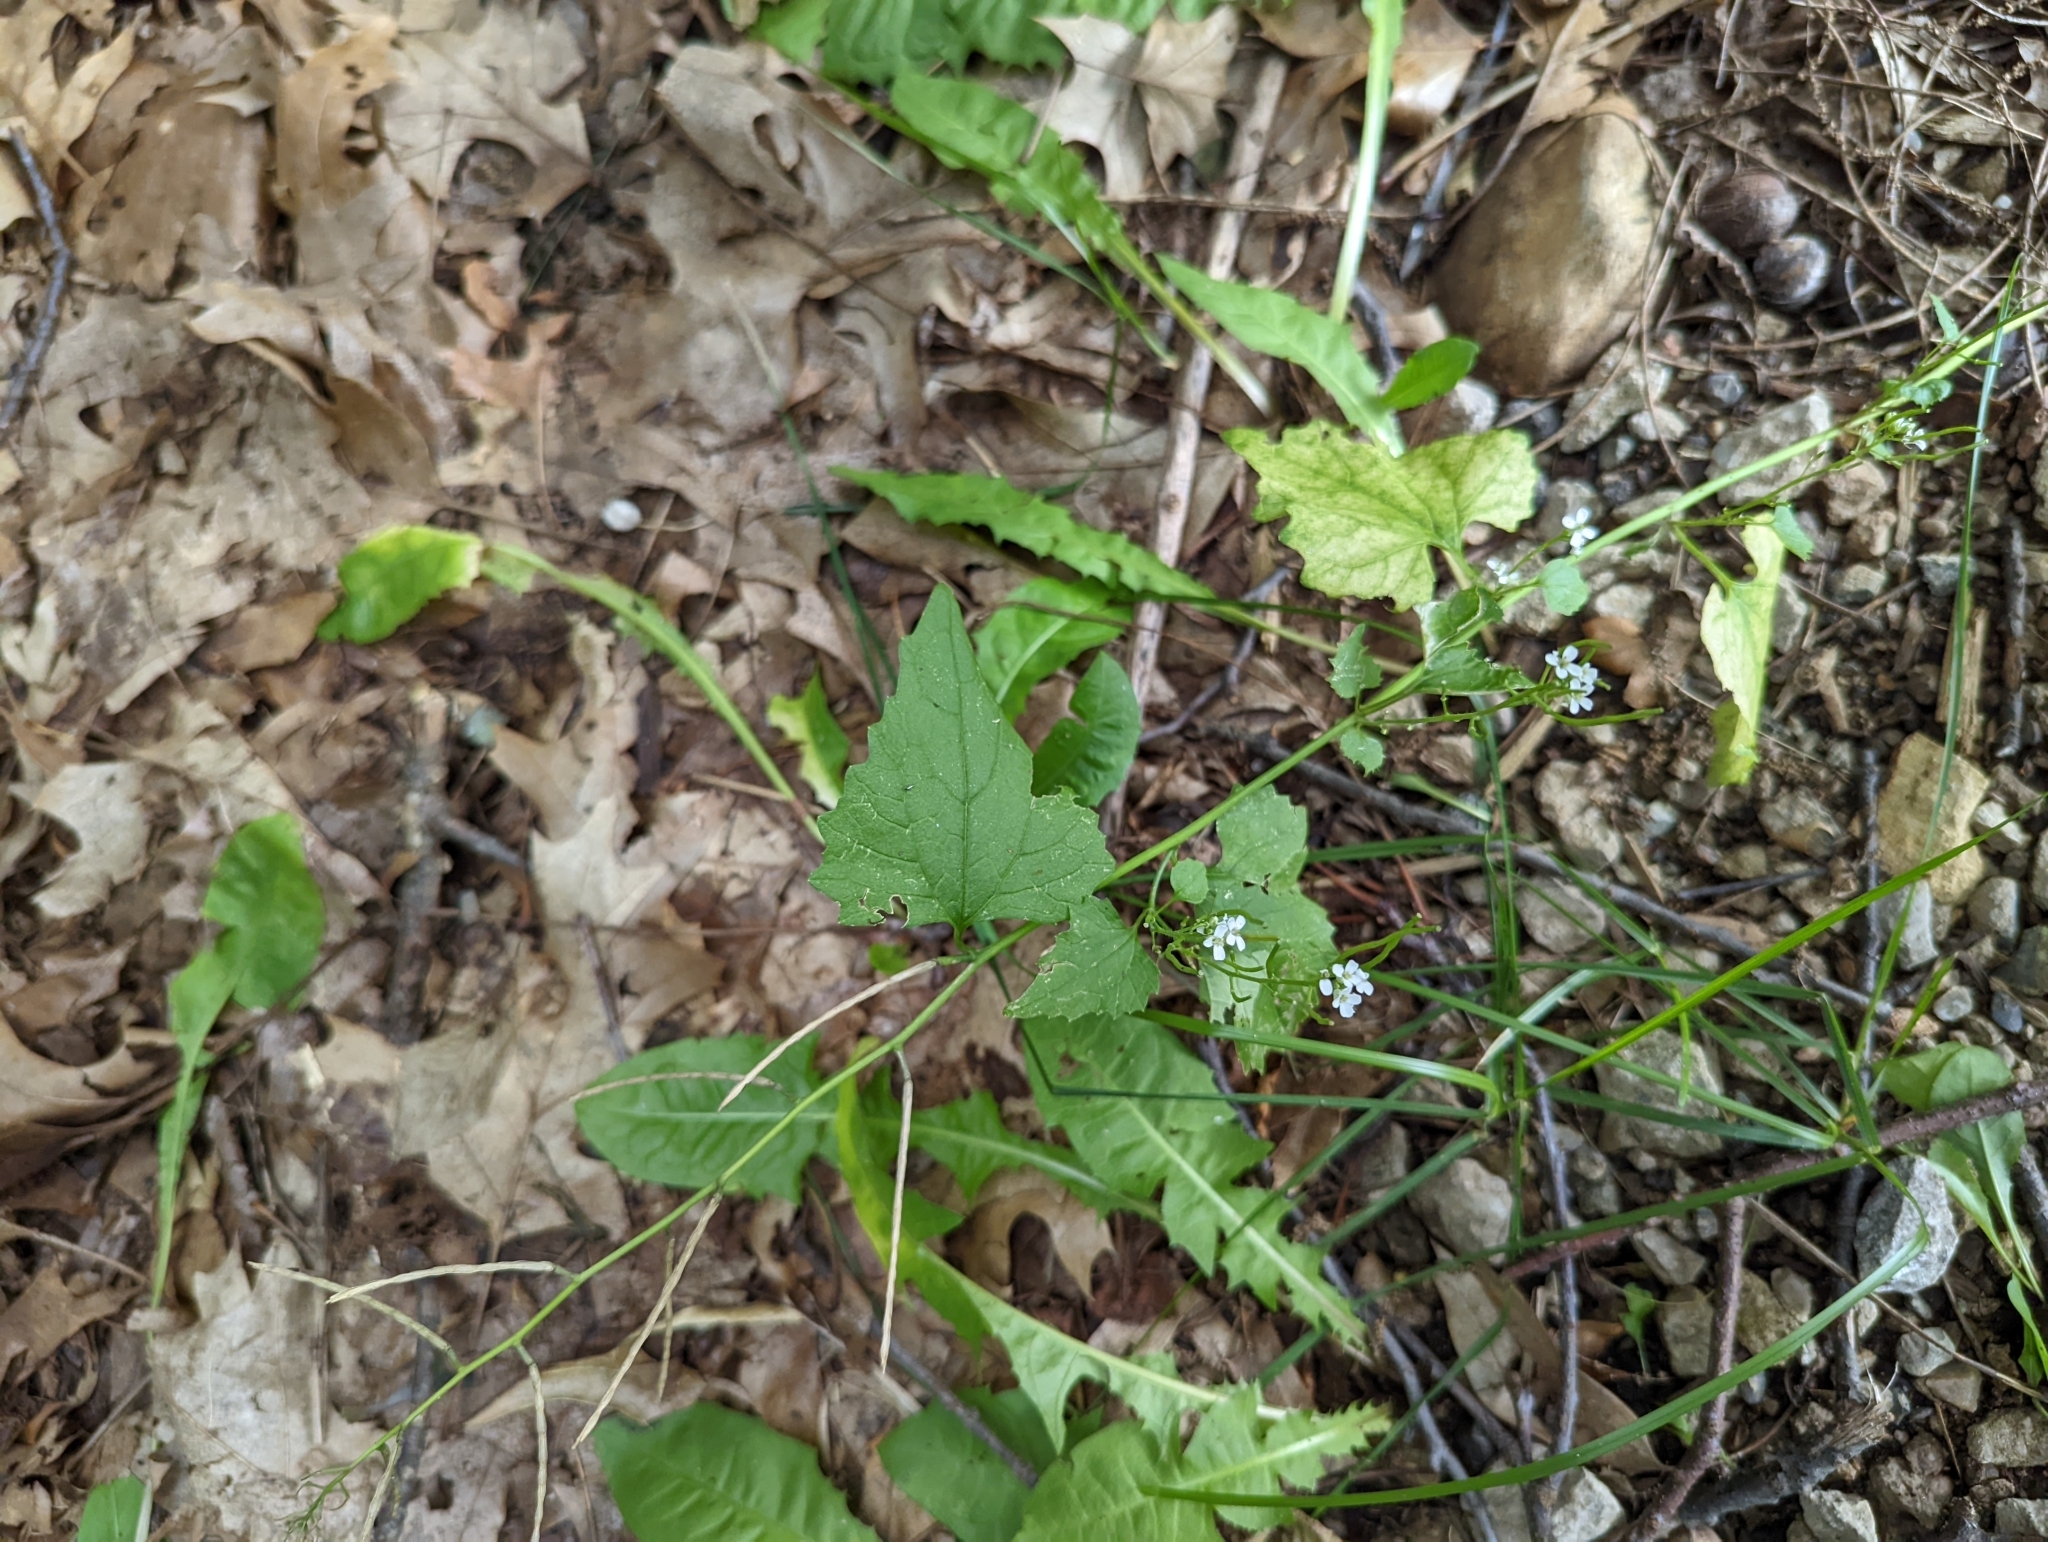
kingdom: Plantae
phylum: Tracheophyta
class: Magnoliopsida
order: Brassicales
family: Brassicaceae
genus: Alliaria
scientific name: Alliaria petiolata
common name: Garlic mustard
